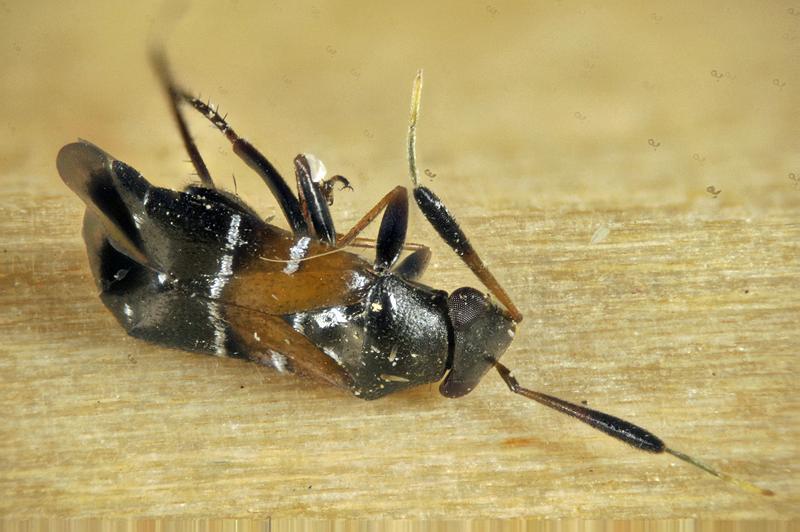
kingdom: Animalia
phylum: Arthropoda
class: Insecta
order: Hemiptera
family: Miridae
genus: Pilophorus
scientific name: Pilophorus
